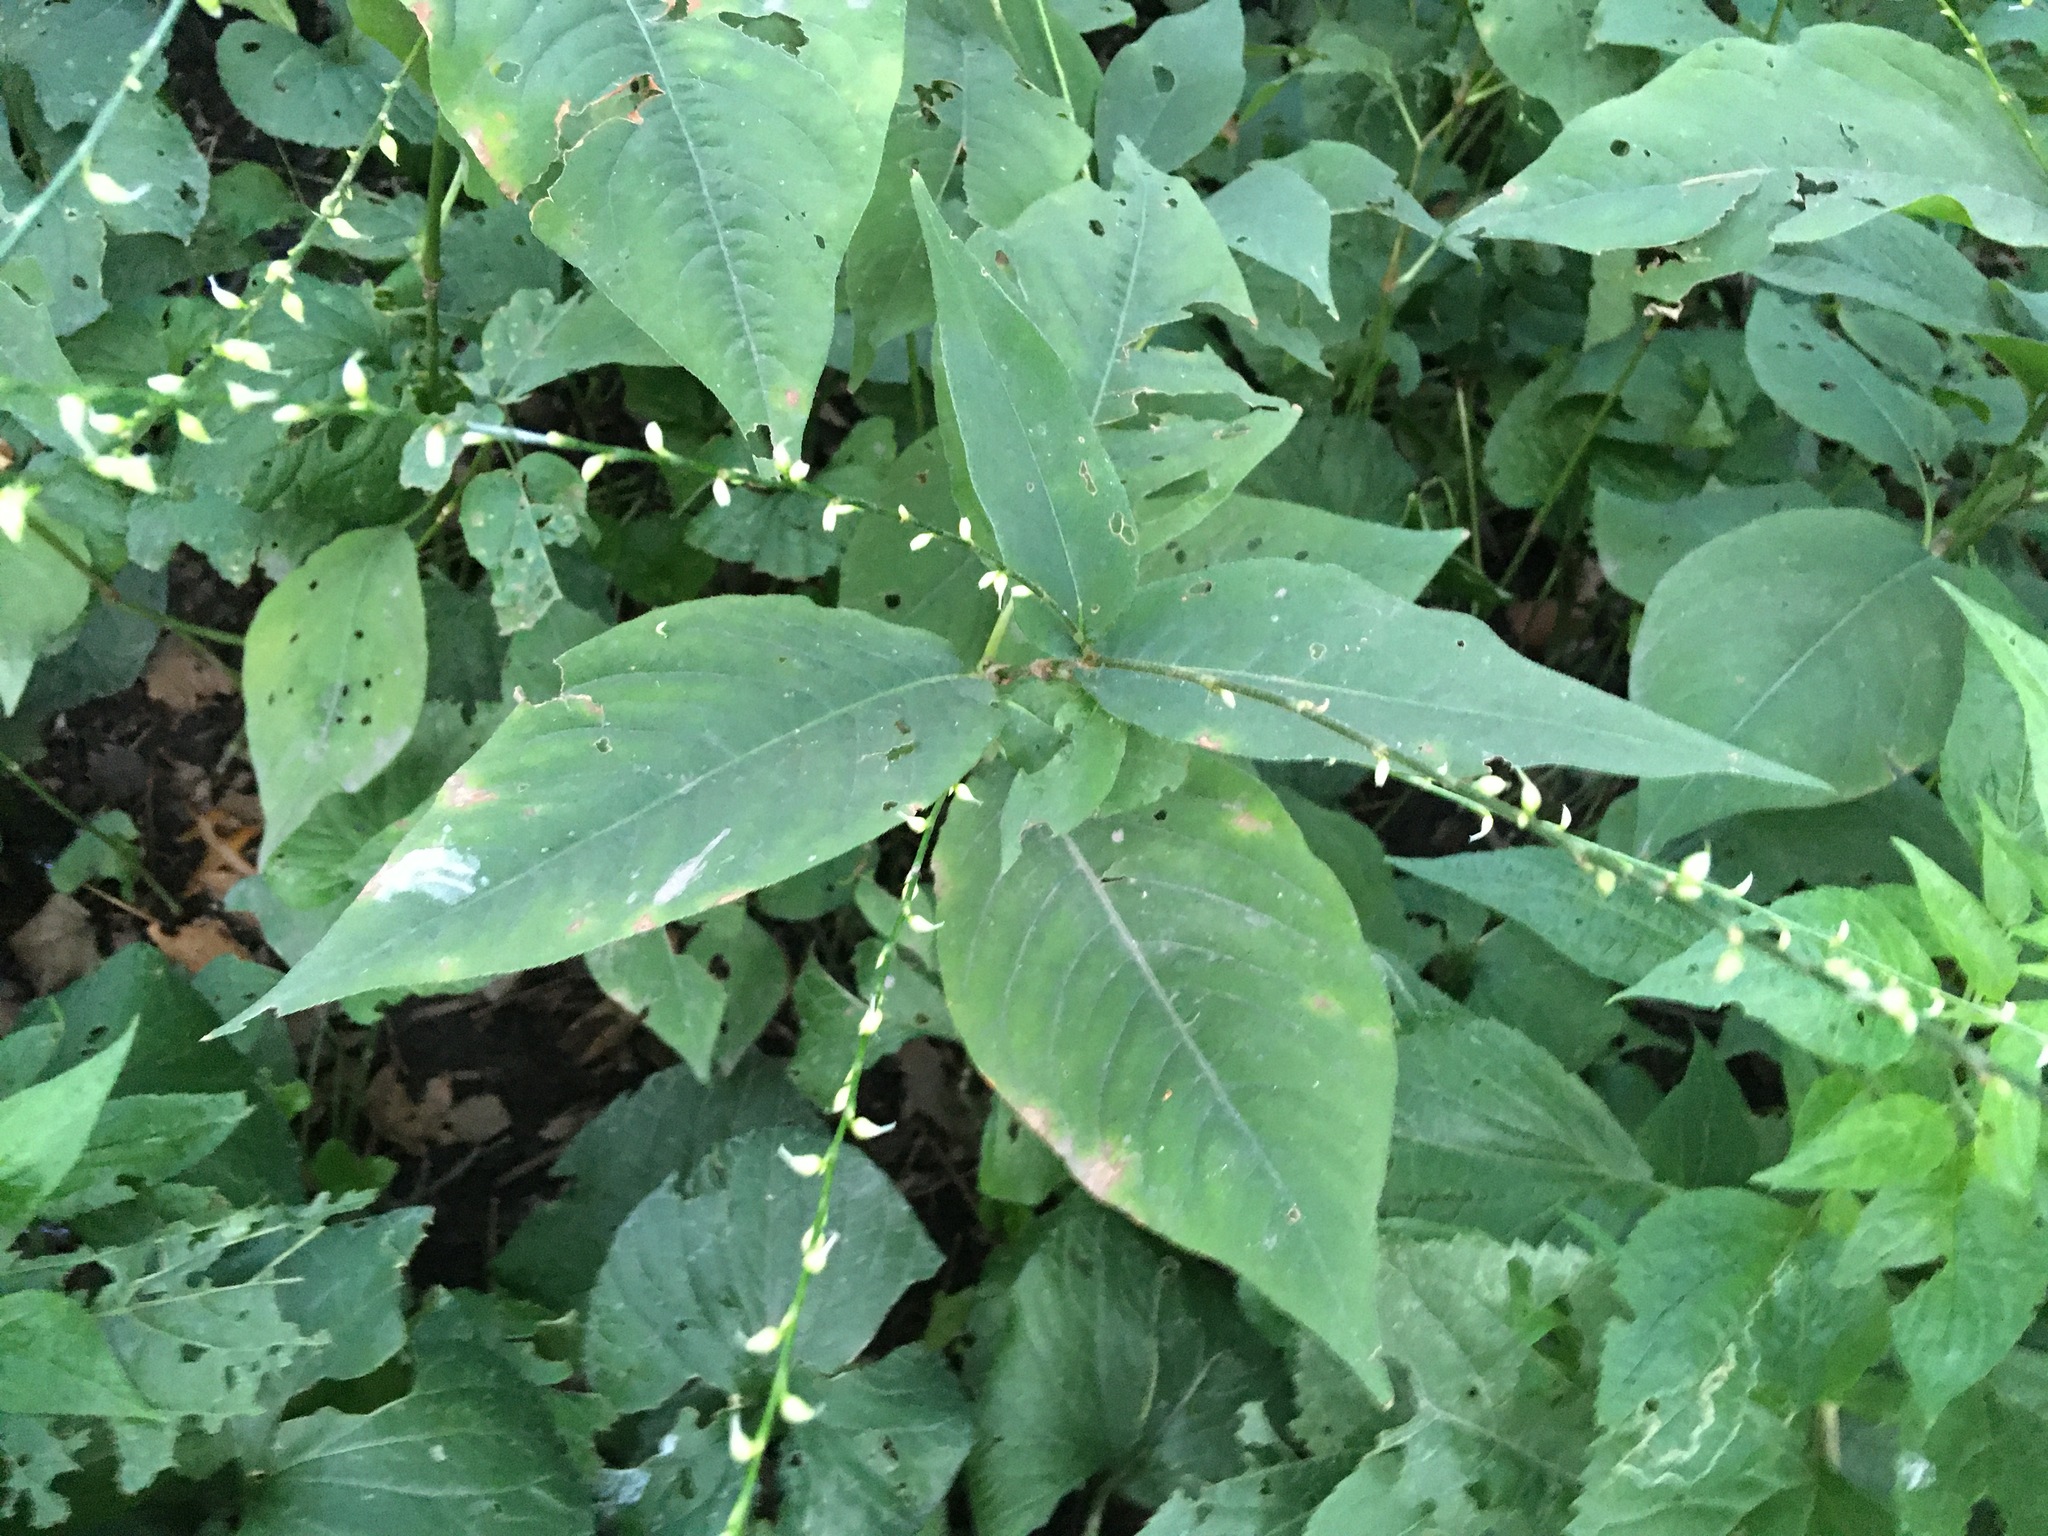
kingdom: Plantae
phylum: Tracheophyta
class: Magnoliopsida
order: Caryophyllales
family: Polygonaceae
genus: Persicaria
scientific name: Persicaria virginiana
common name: Jumpseed
